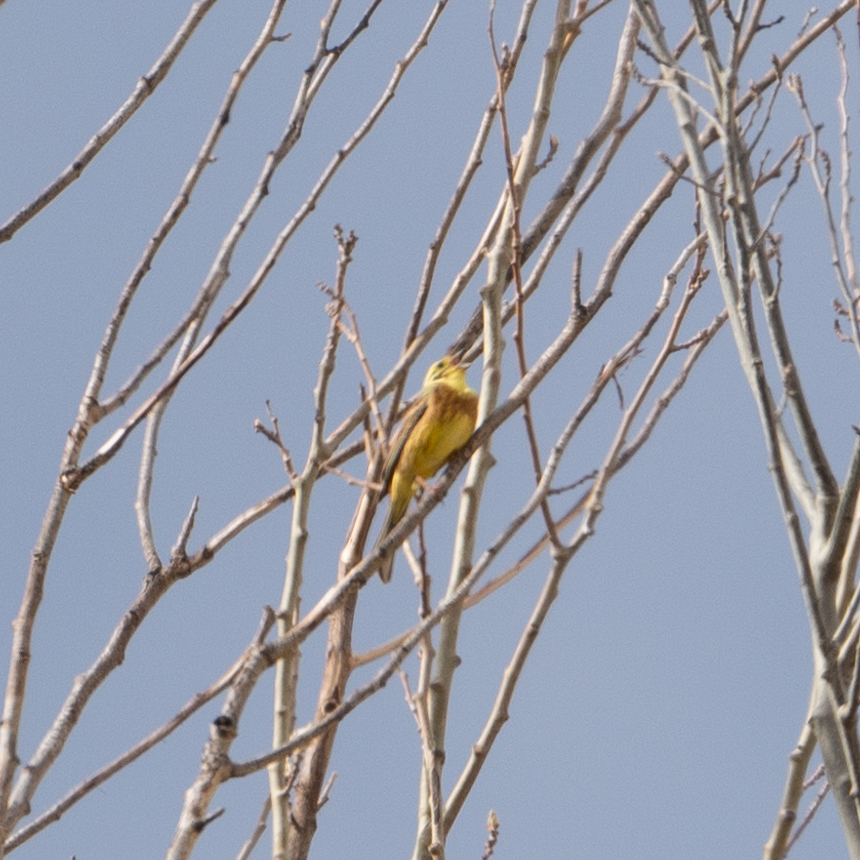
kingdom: Animalia
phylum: Chordata
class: Aves
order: Passeriformes
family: Emberizidae
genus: Emberiza
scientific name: Emberiza citrinella
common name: Yellowhammer
